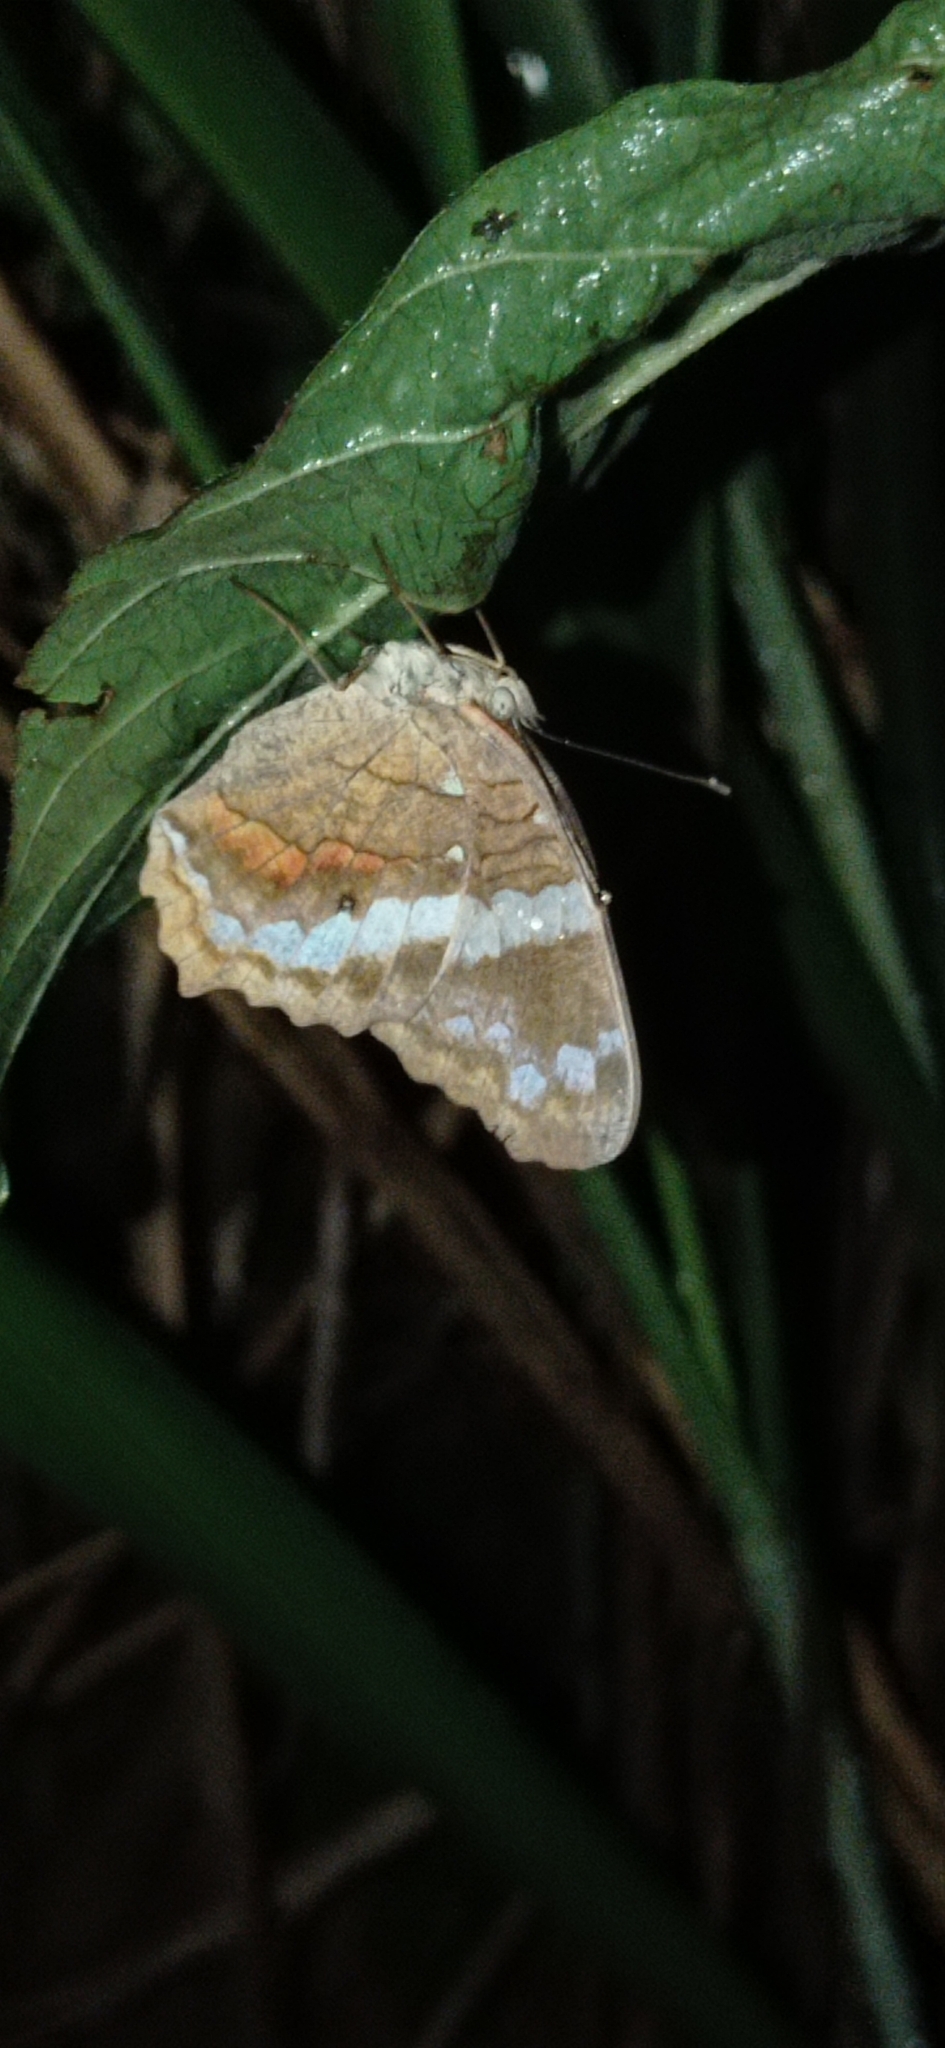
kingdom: Animalia
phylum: Arthropoda
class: Insecta
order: Lepidoptera
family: Nymphalidae
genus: Anartia
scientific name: Anartia fatima
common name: Banded peacock
